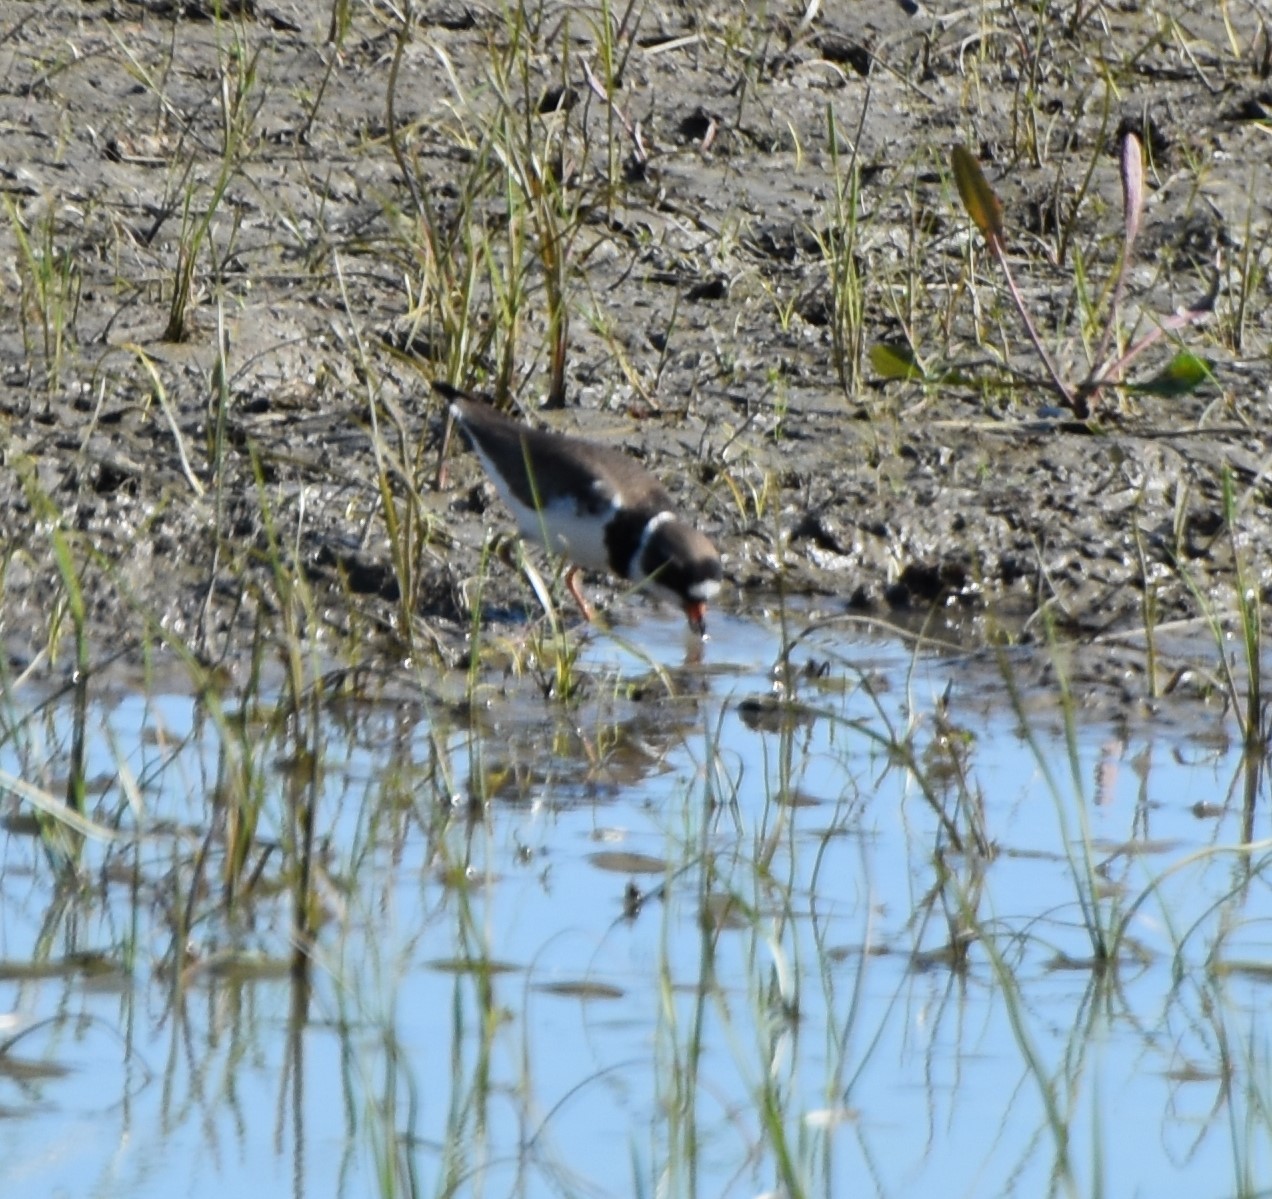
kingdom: Animalia
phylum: Chordata
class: Aves
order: Charadriiformes
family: Charadriidae
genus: Charadrius
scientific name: Charadrius semipalmatus
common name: Semipalmated plover
